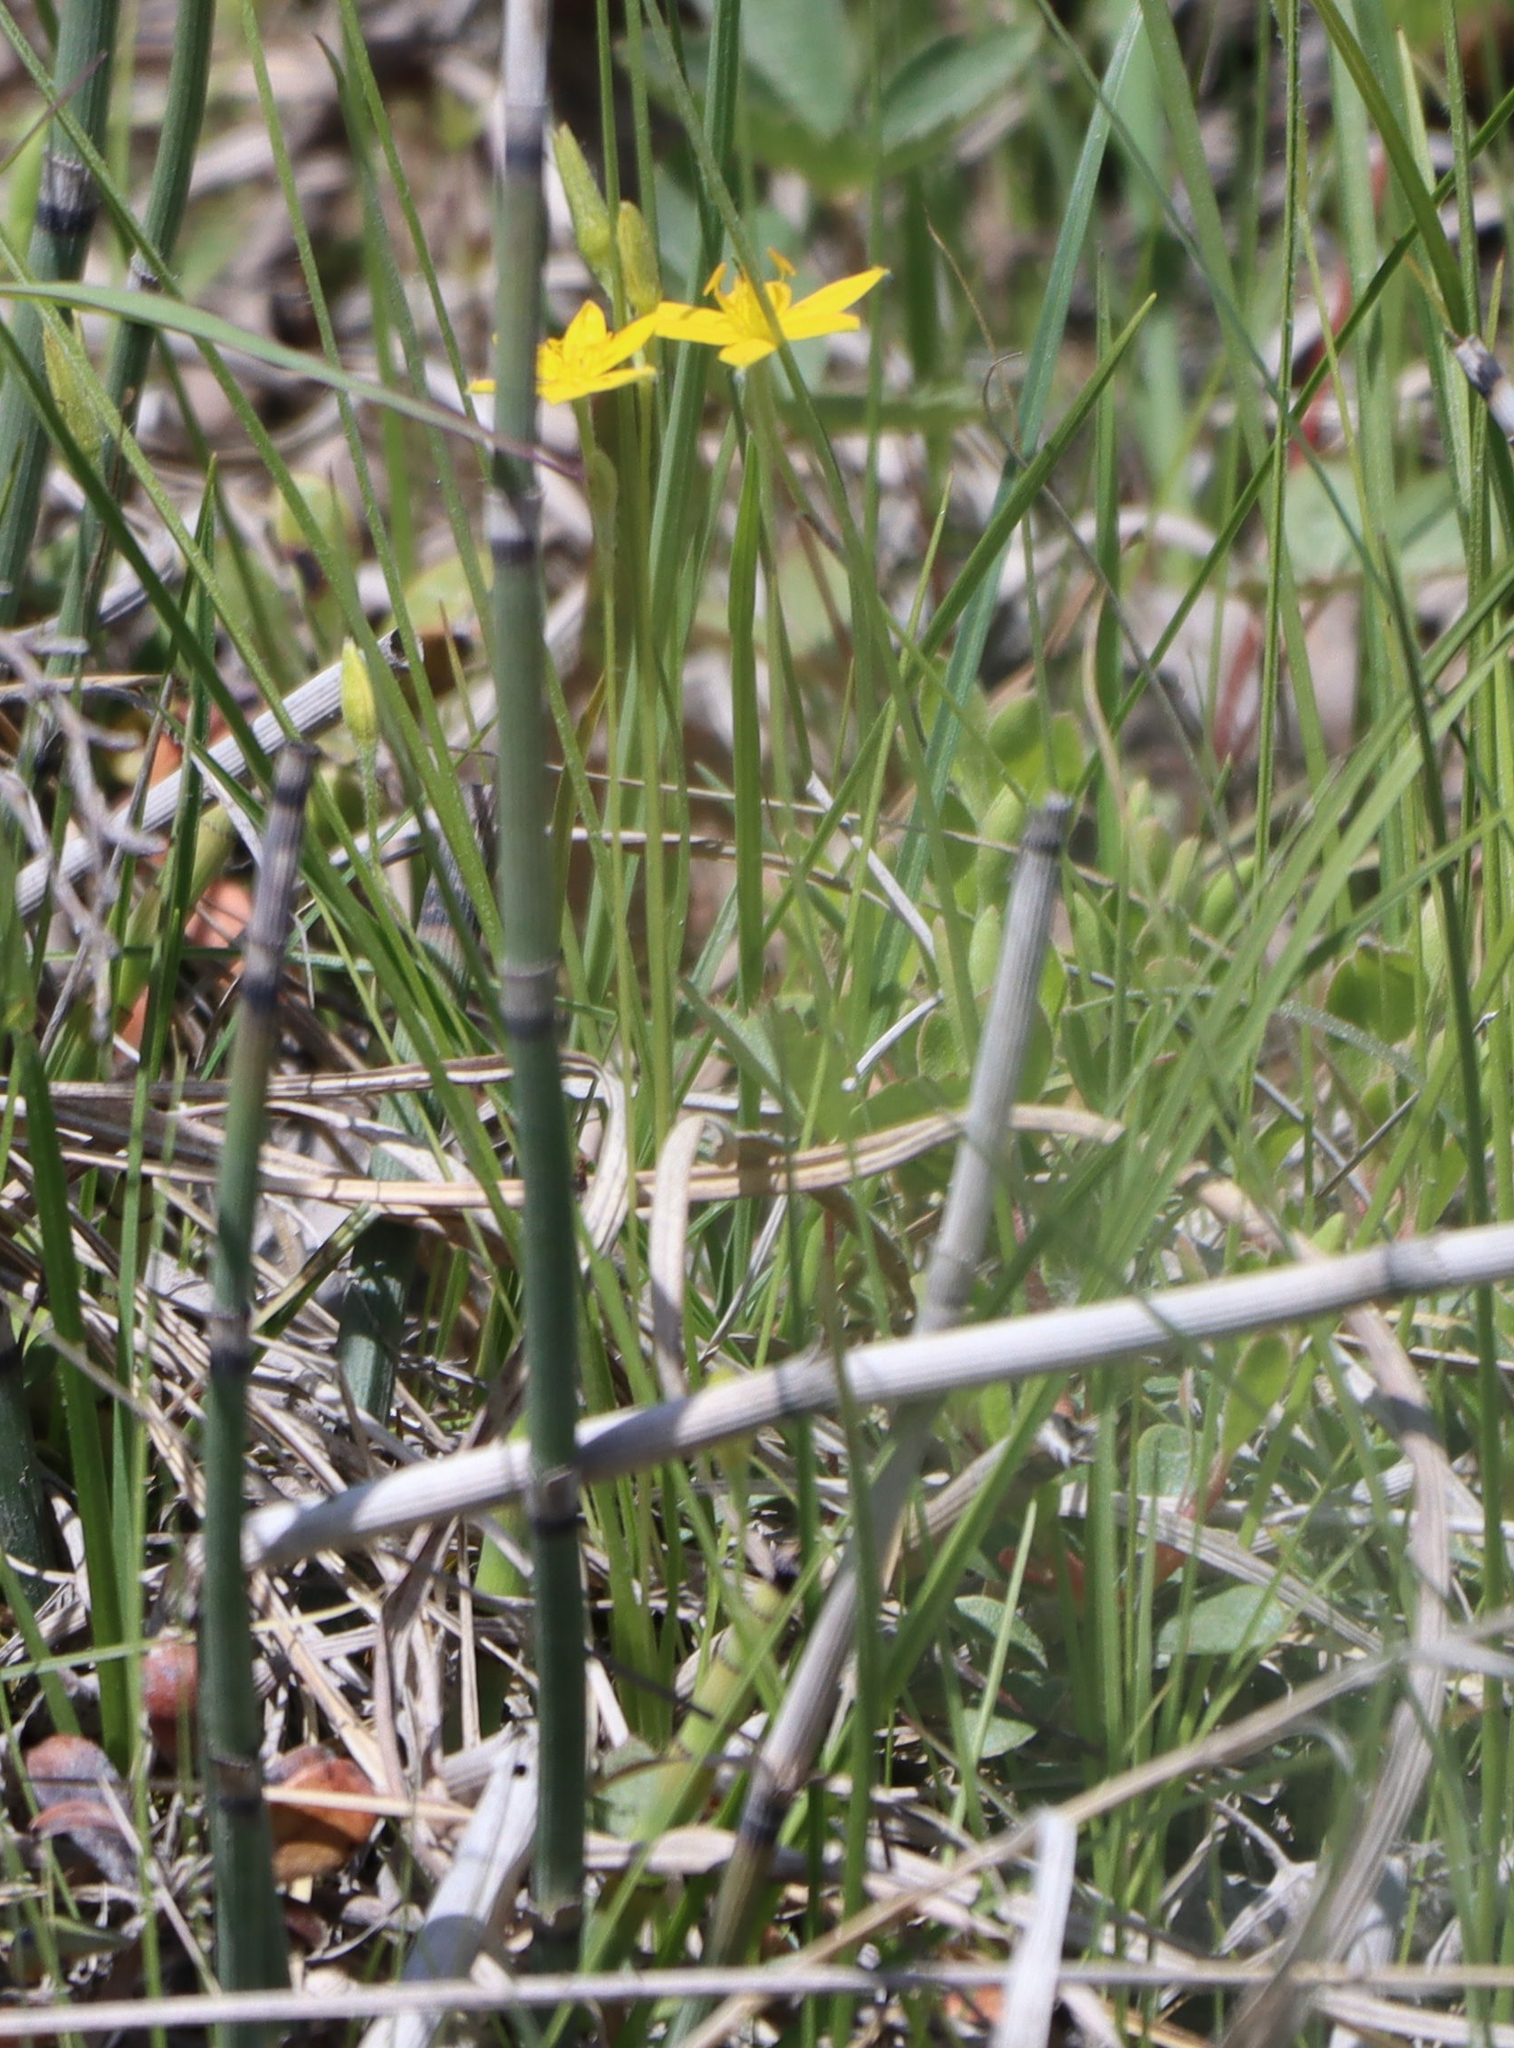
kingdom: Plantae
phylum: Tracheophyta
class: Liliopsida
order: Asparagales
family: Hypoxidaceae
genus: Hypoxis
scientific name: Hypoxis hirsuta
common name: Common goldstar
